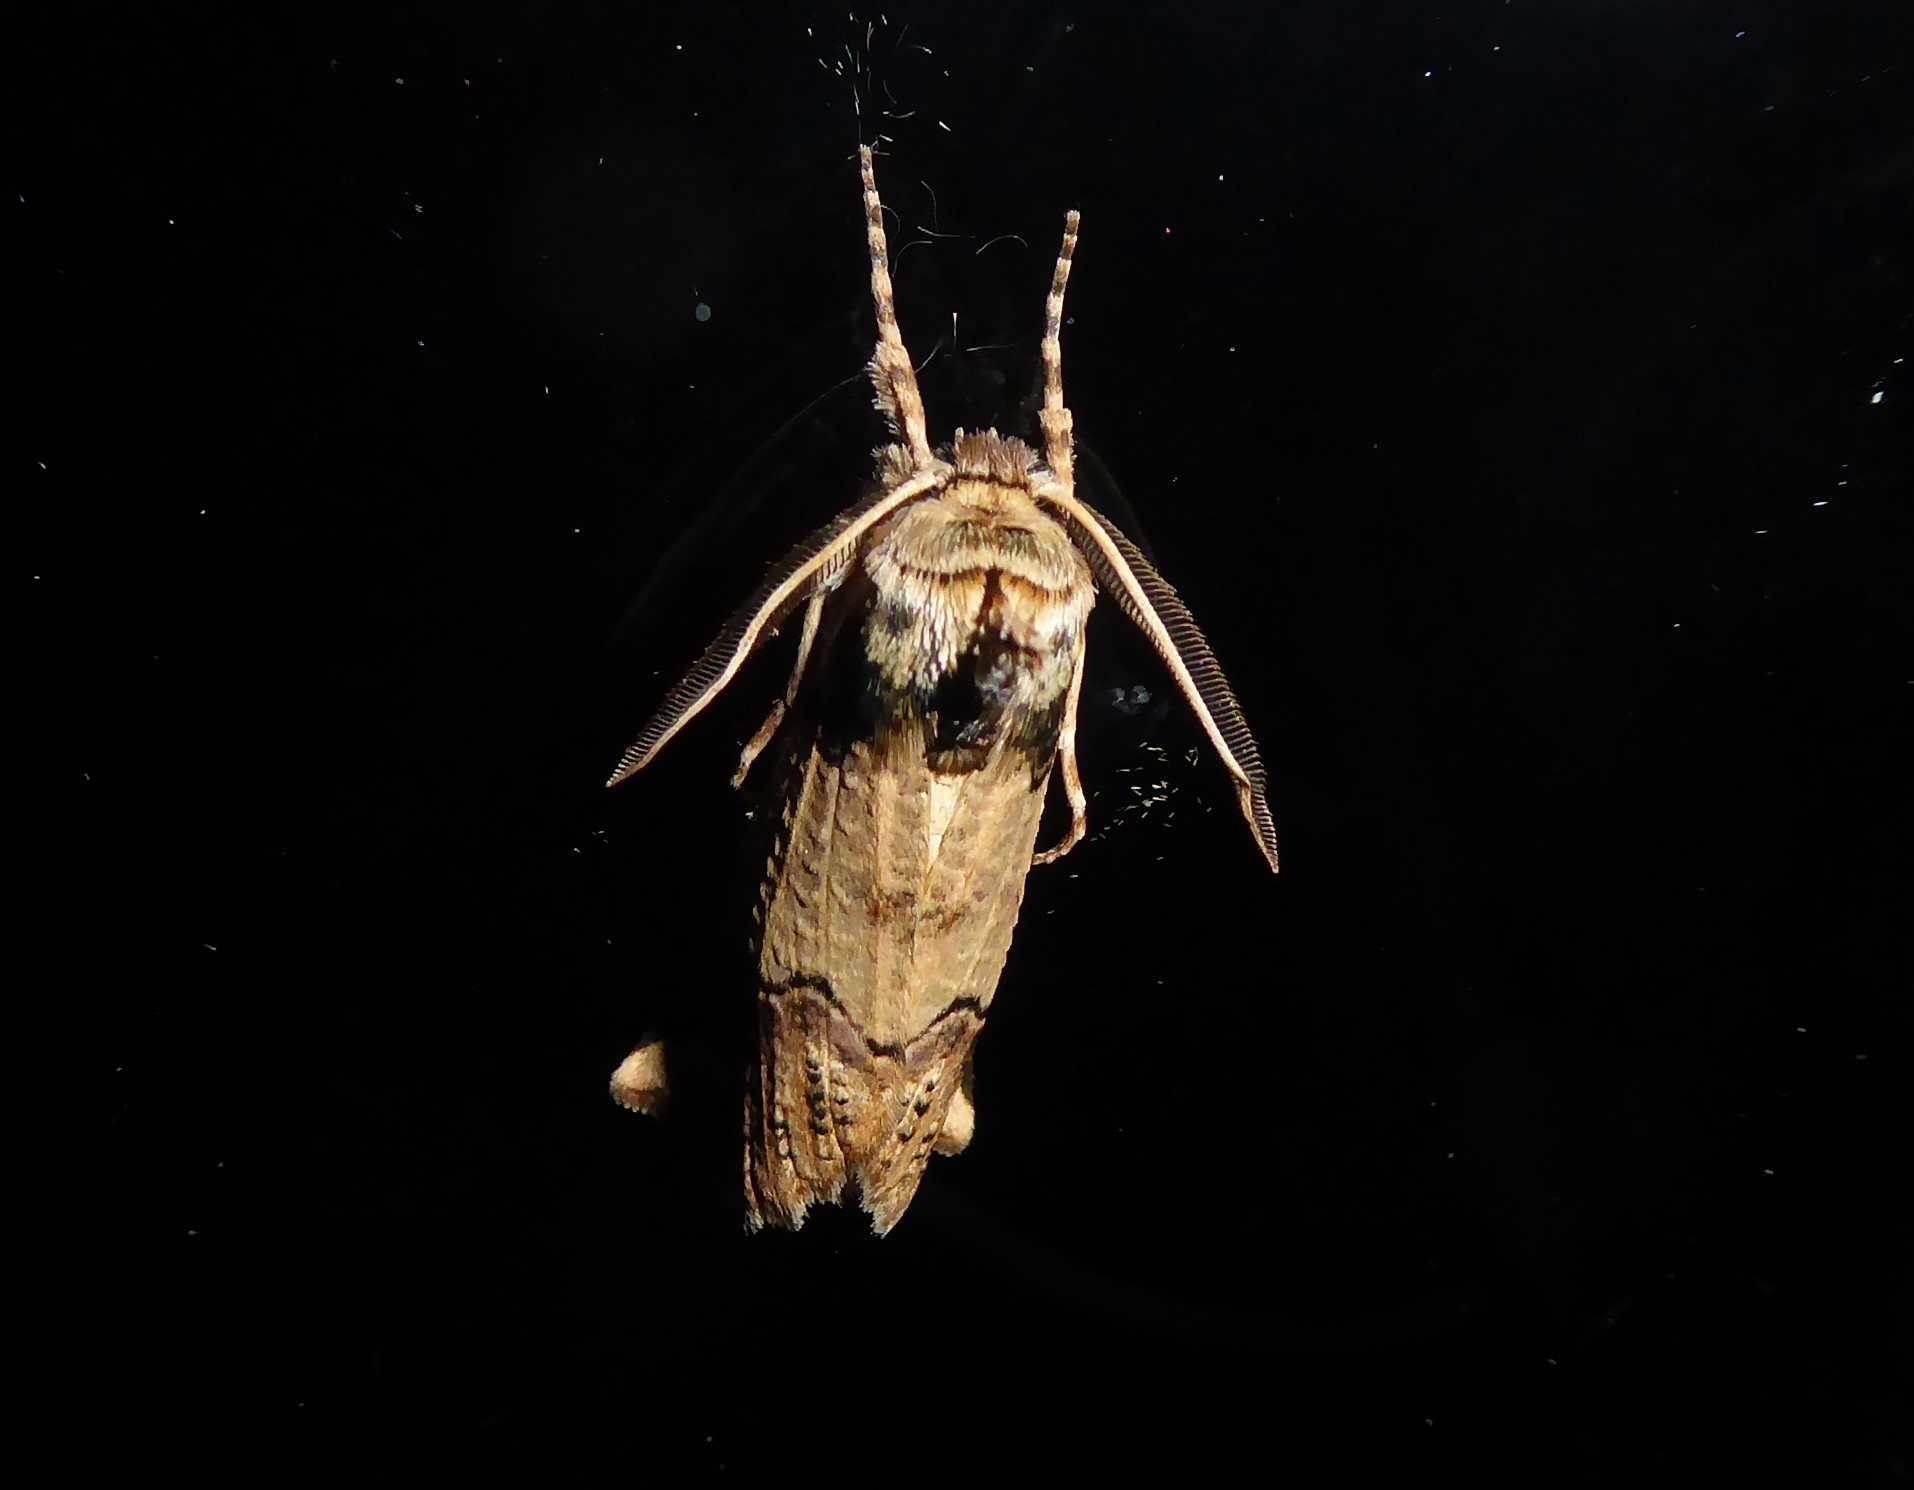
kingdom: Animalia
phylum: Arthropoda
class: Insecta
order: Lepidoptera
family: Geometridae
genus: Declana
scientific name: Declana
